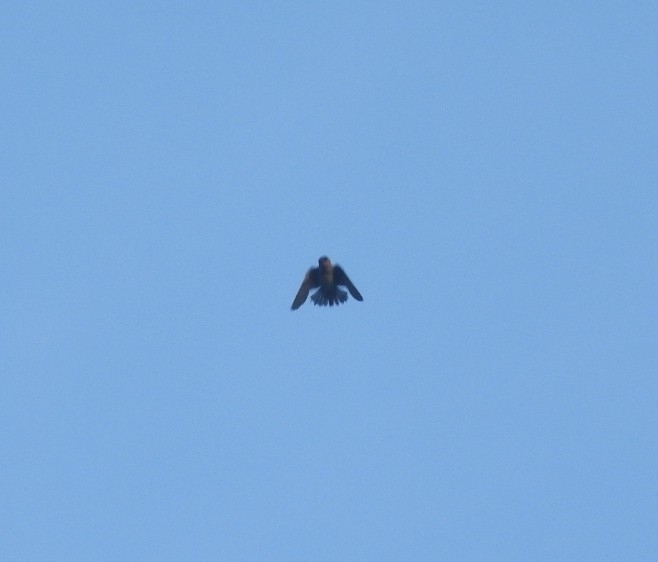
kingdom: Animalia
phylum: Chordata
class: Aves
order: Passeriformes
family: Hirundinidae
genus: Petrochelidon
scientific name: Petrochelidon fulva
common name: Cave swallow
